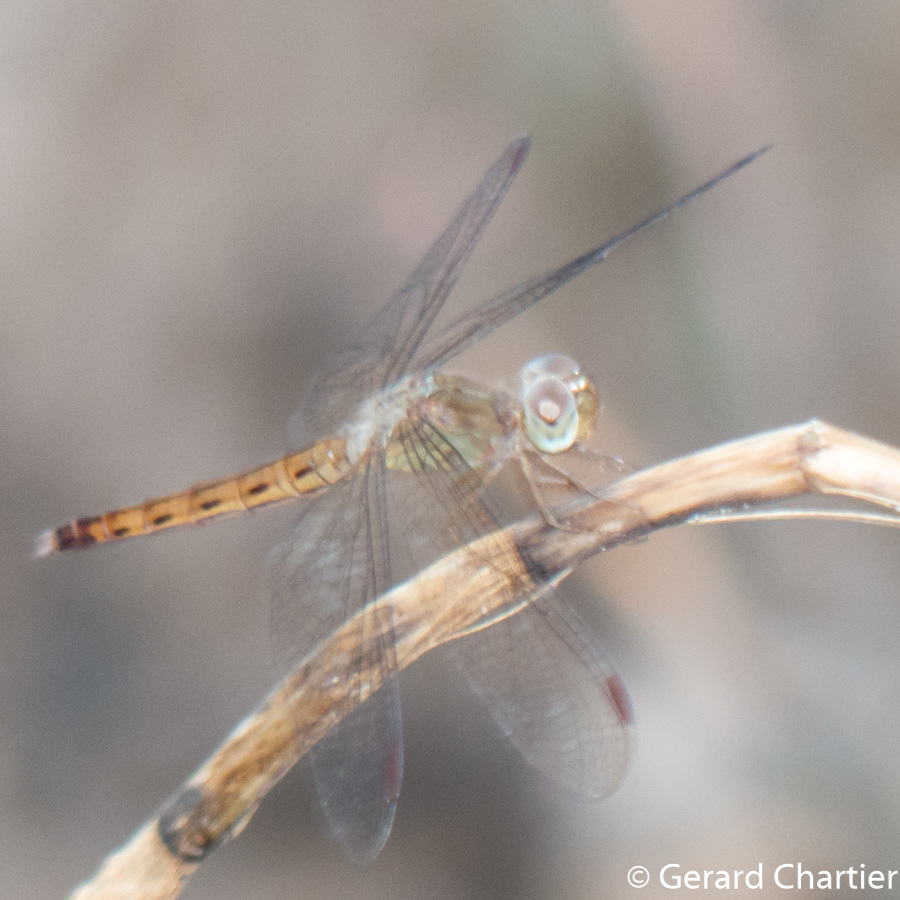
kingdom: Animalia
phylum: Arthropoda
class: Insecta
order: Odonata
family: Libellulidae
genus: Neurothemis
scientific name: Neurothemis fluctuans
